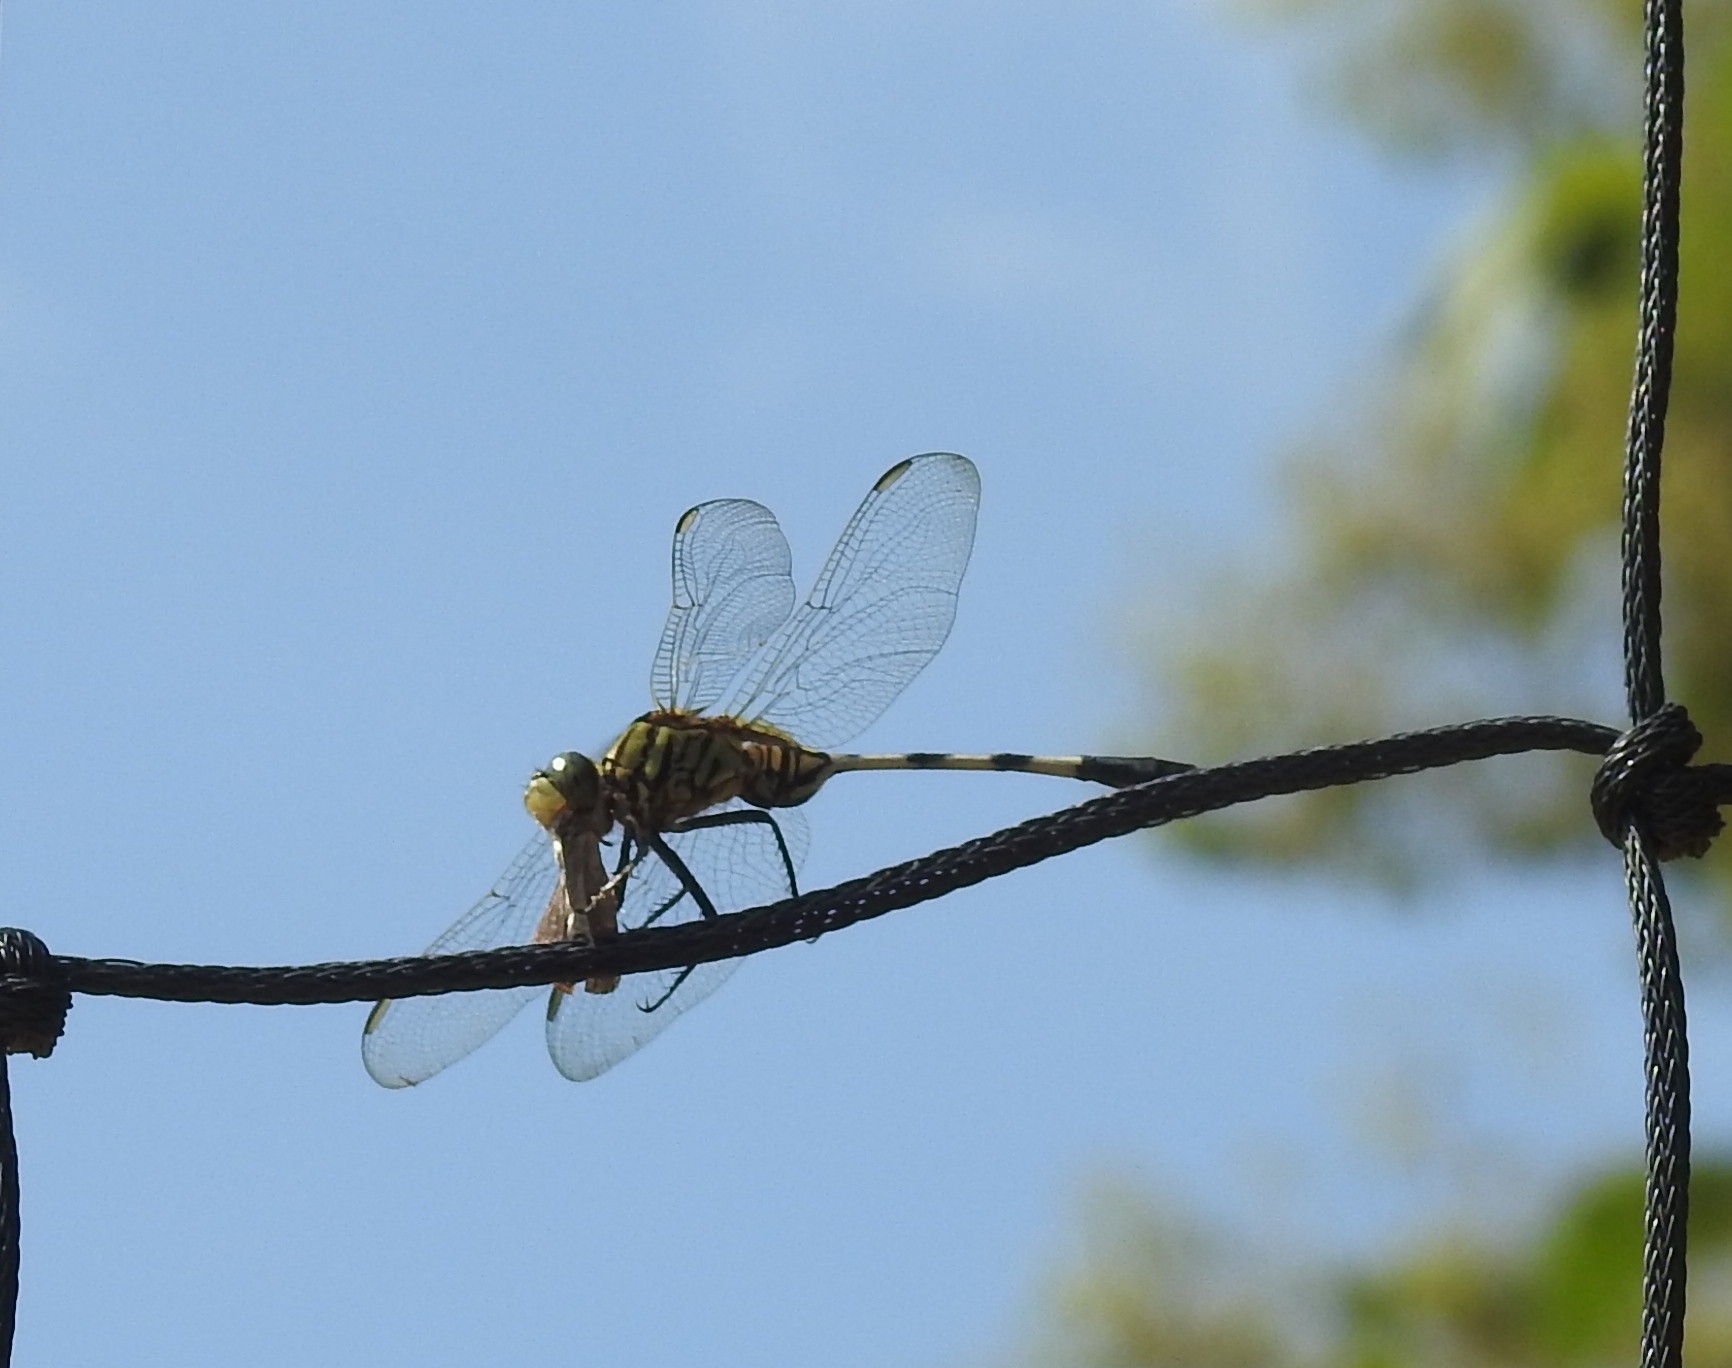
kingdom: Animalia
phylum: Arthropoda
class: Insecta
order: Odonata
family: Libellulidae
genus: Orthetrum
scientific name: Orthetrum sabina
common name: Slender skimmer
